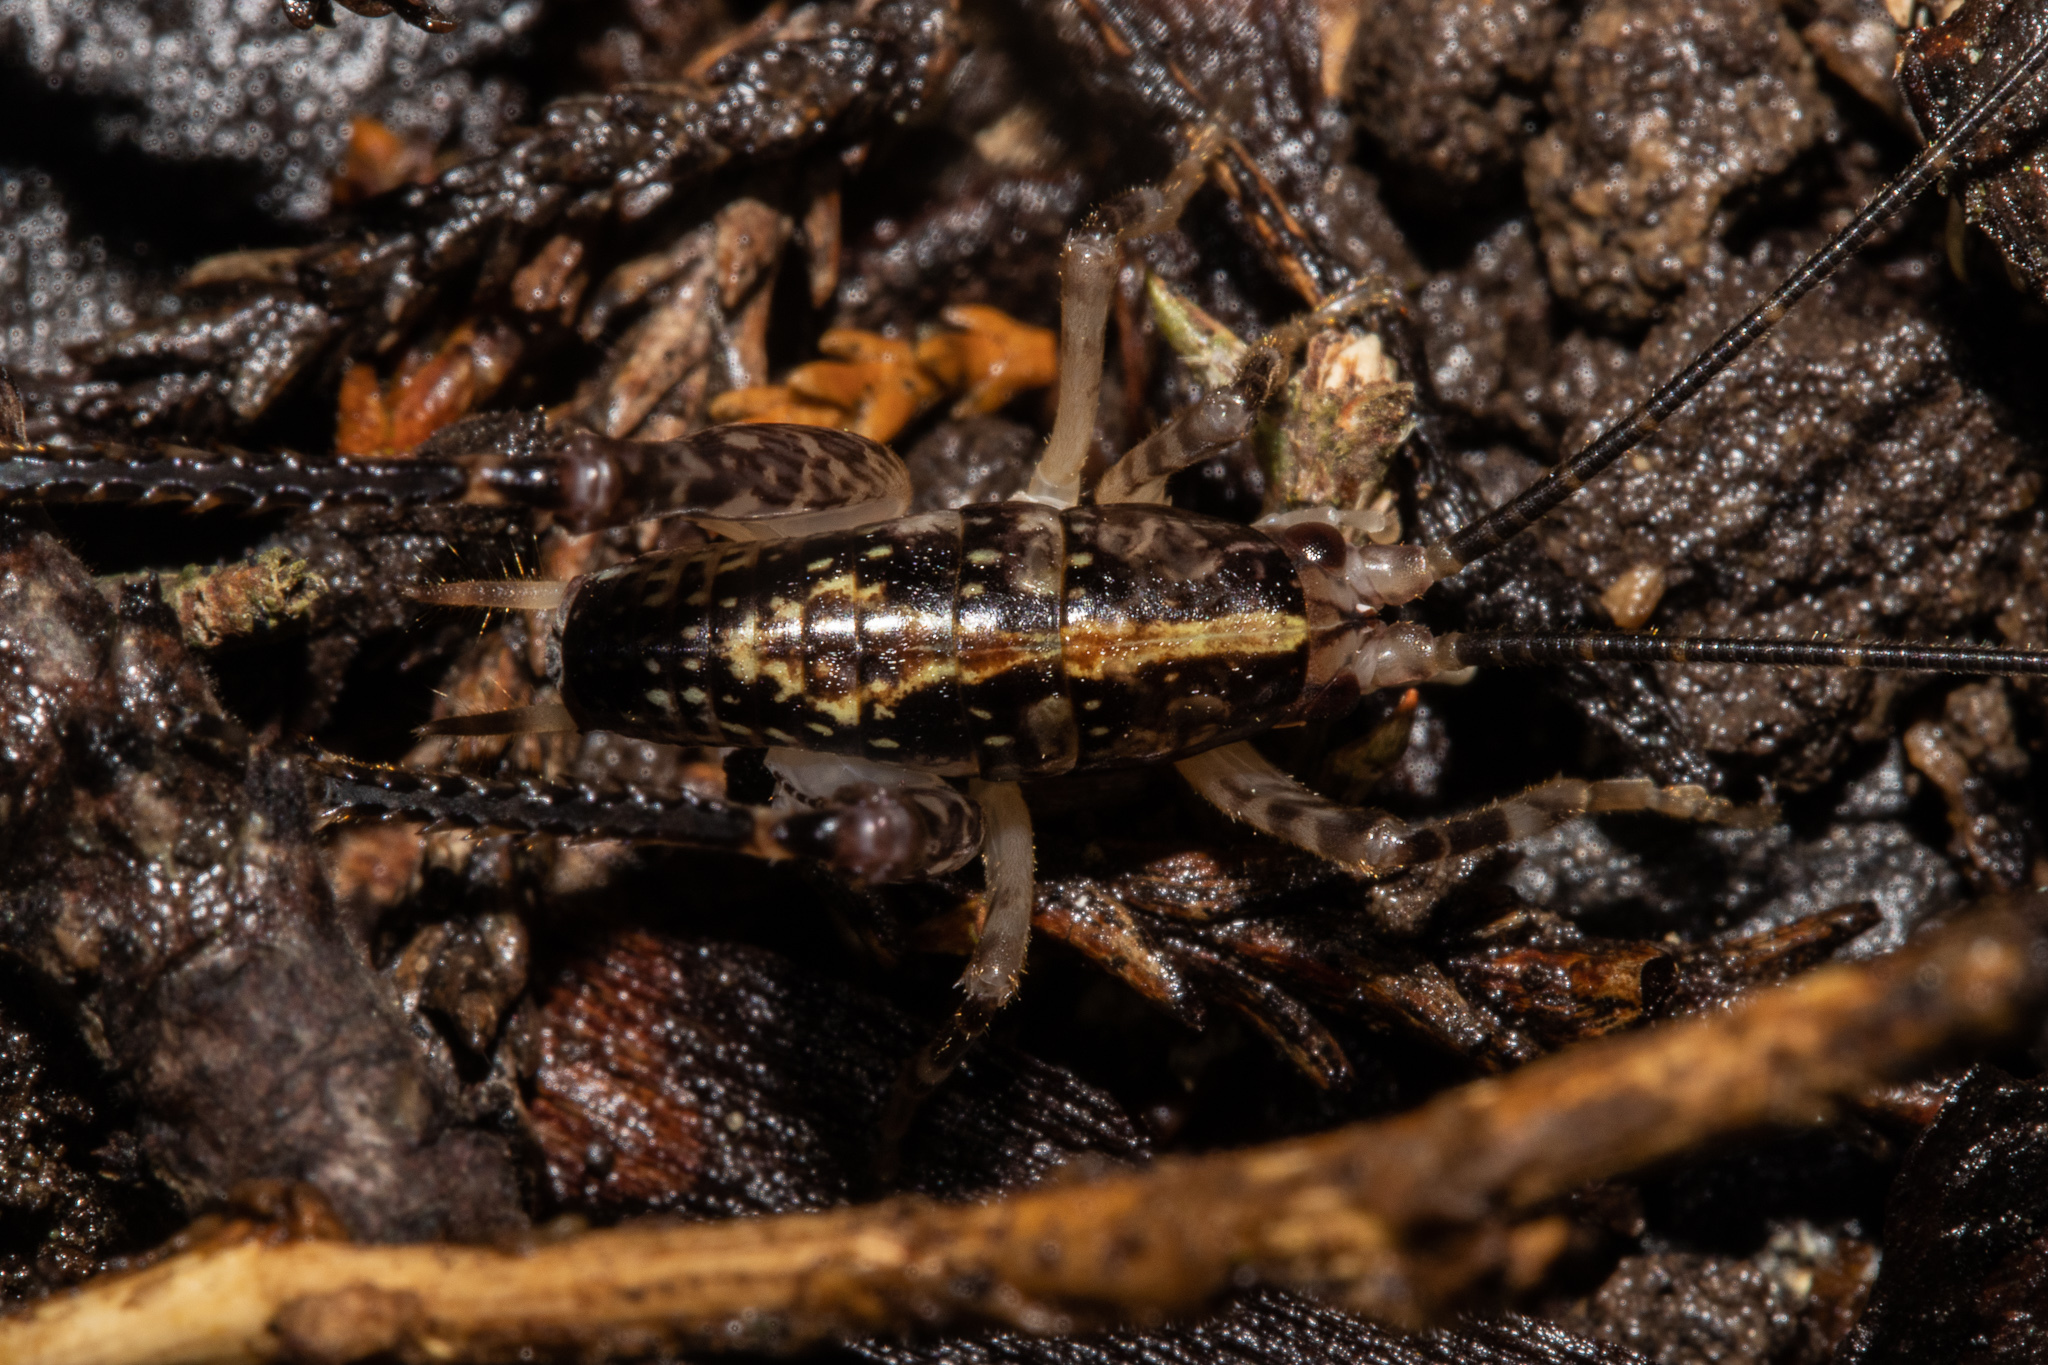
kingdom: Animalia
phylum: Arthropoda
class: Insecta
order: Orthoptera
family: Rhaphidophoridae
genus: Talitropsis
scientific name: Talitropsis sedilloti
